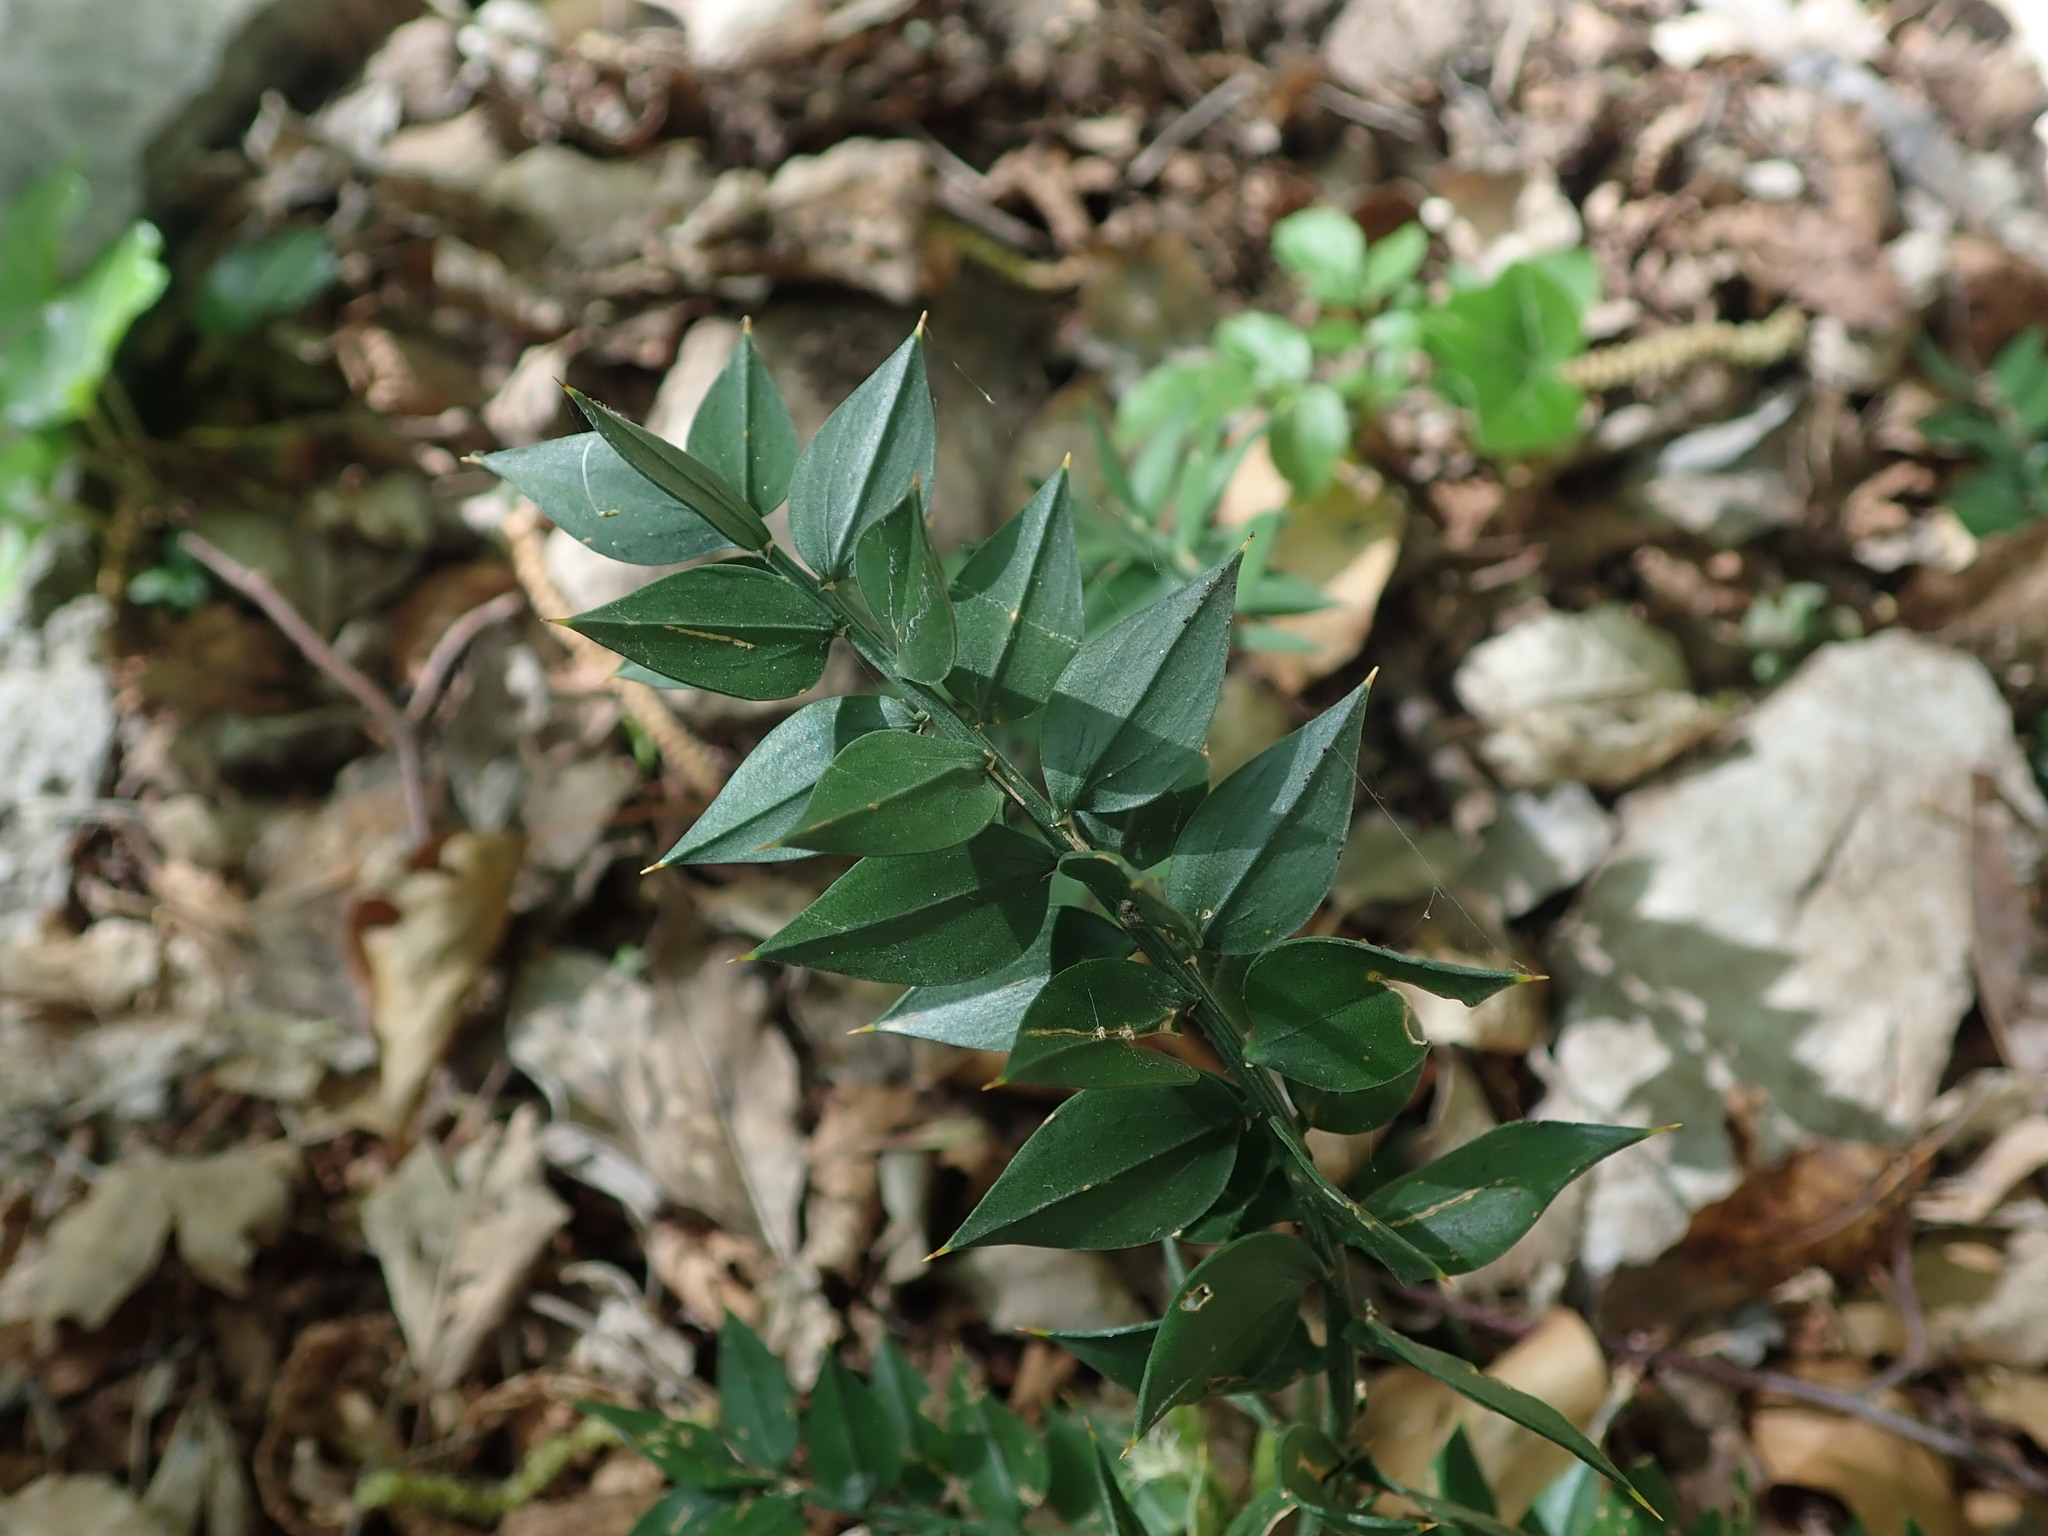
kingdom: Plantae
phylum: Tracheophyta
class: Liliopsida
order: Asparagales
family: Asparagaceae
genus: Ruscus
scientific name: Ruscus aculeatus
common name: Butcher's-broom
